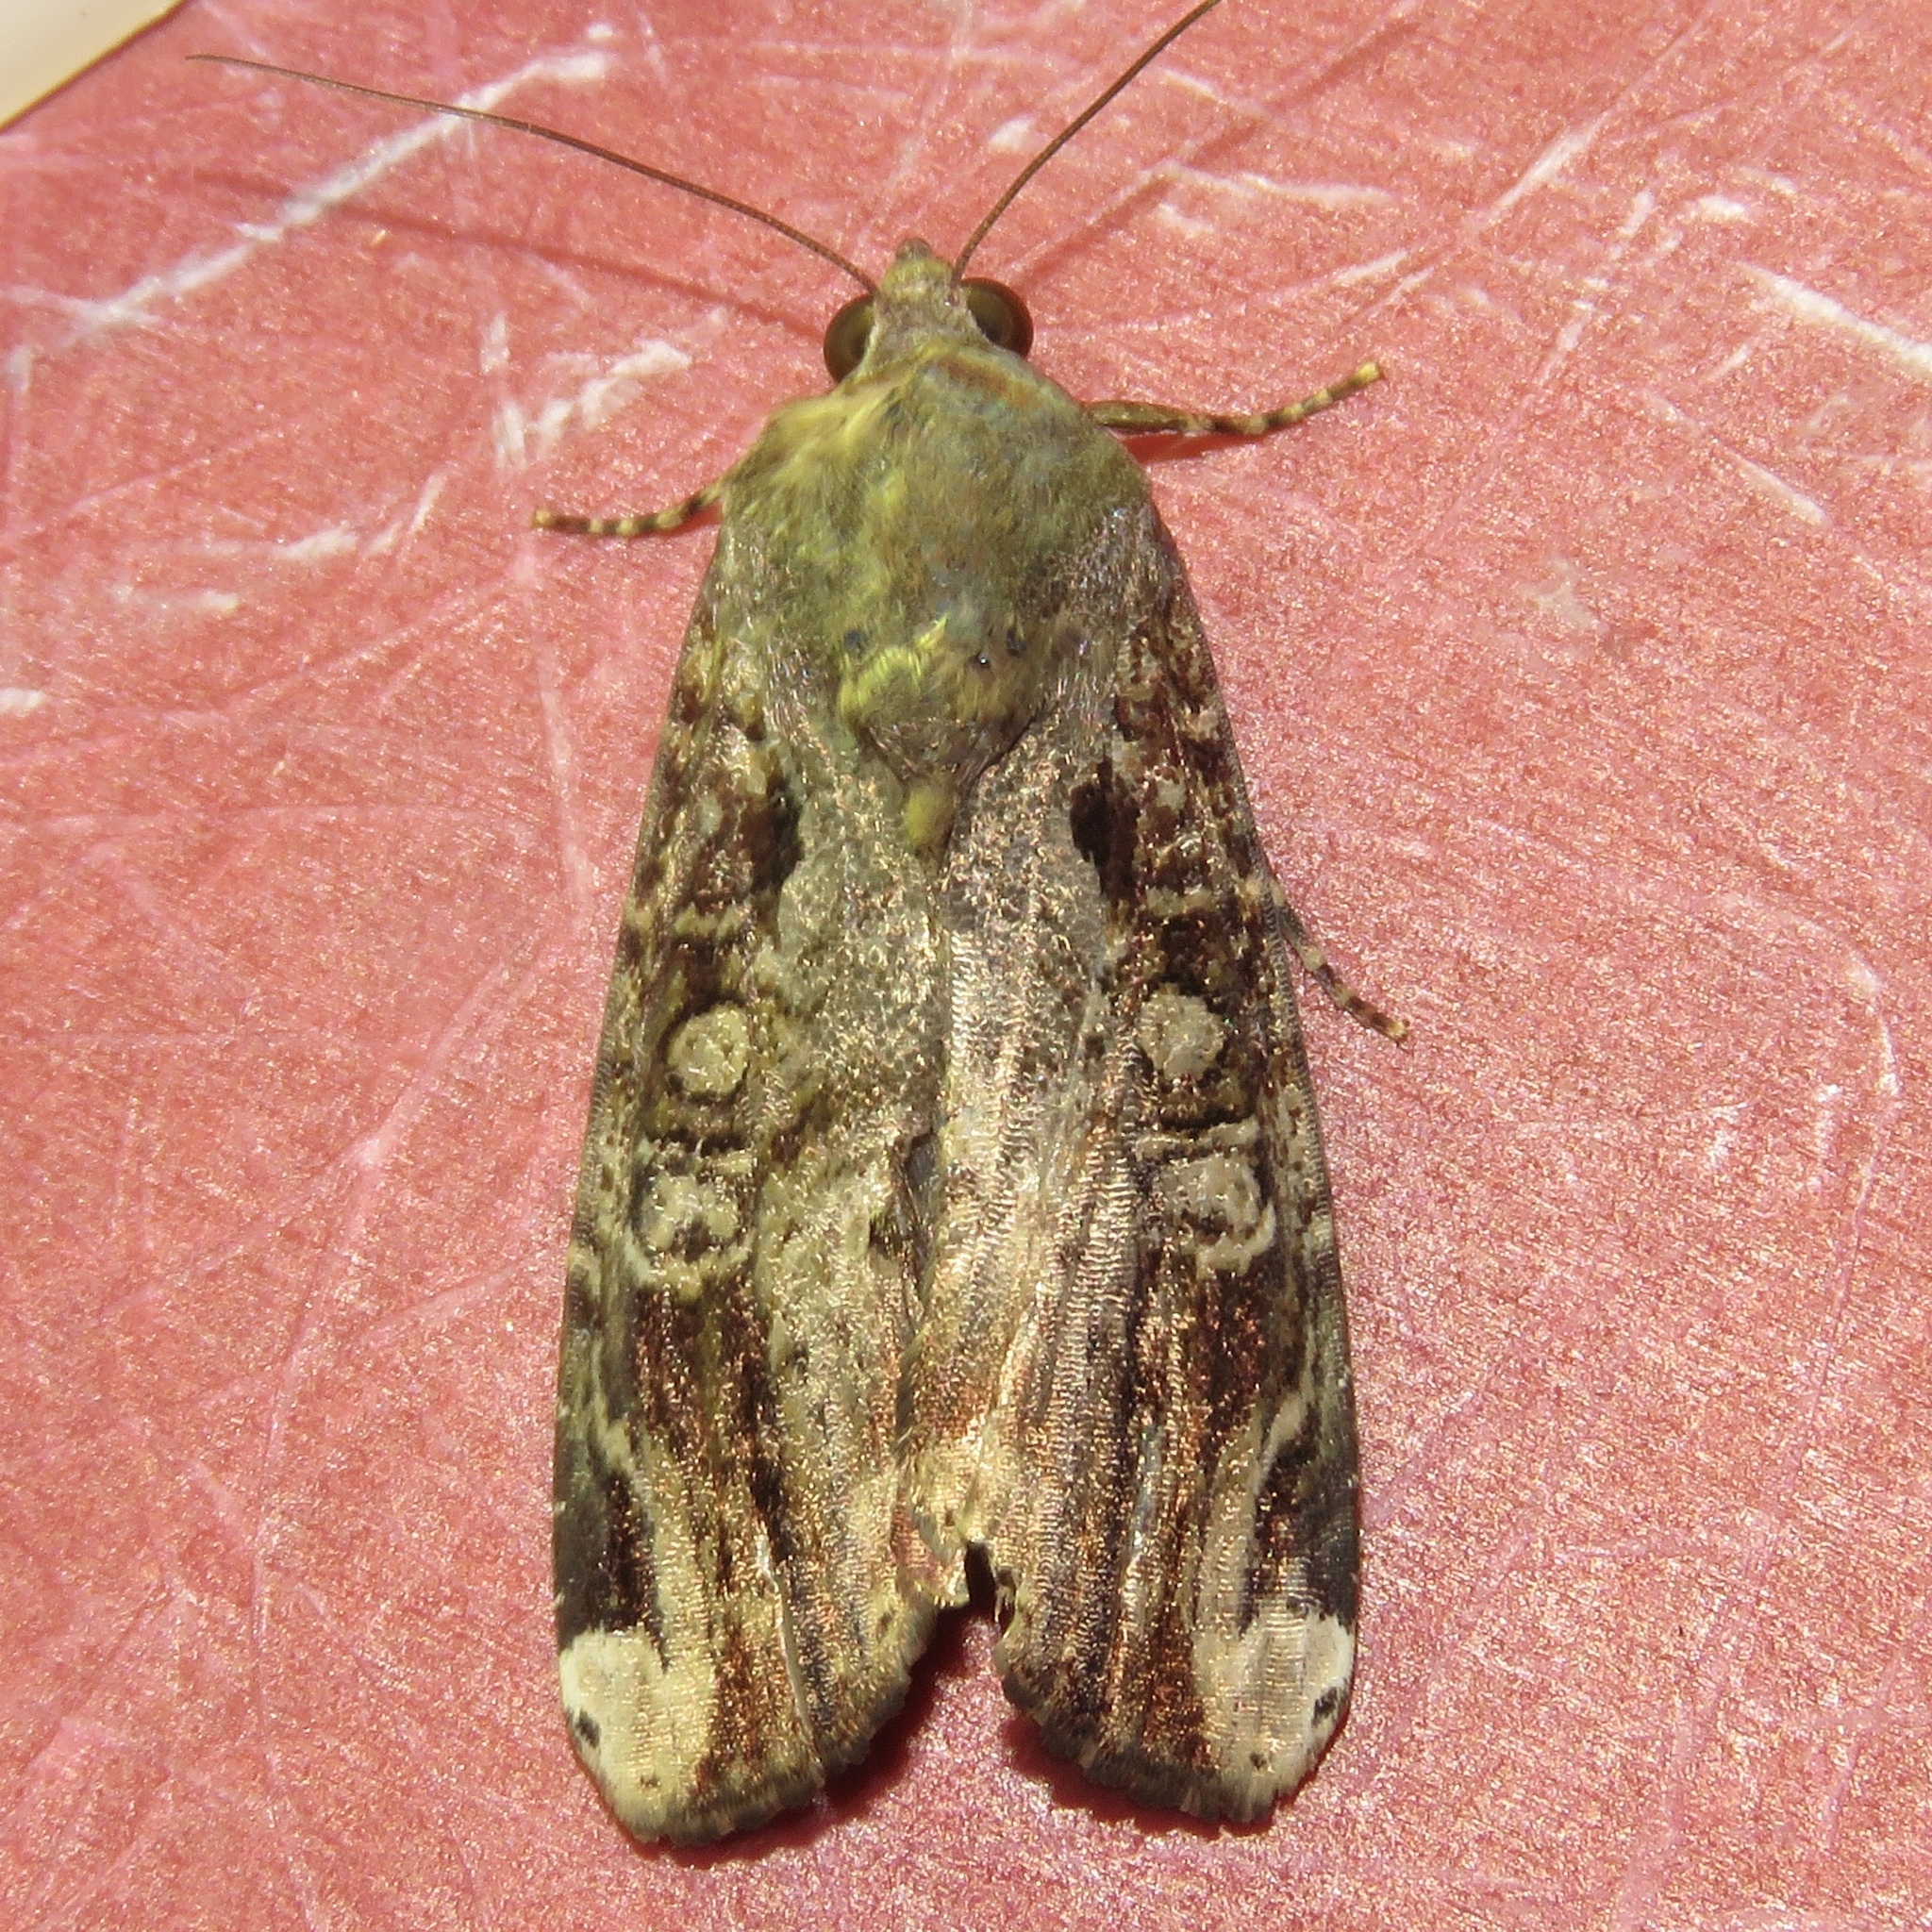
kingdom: Animalia
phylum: Arthropoda
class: Insecta
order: Lepidoptera
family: Noctuidae
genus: Magusa
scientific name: Magusa divaricata
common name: Orb narrow-winged moth
